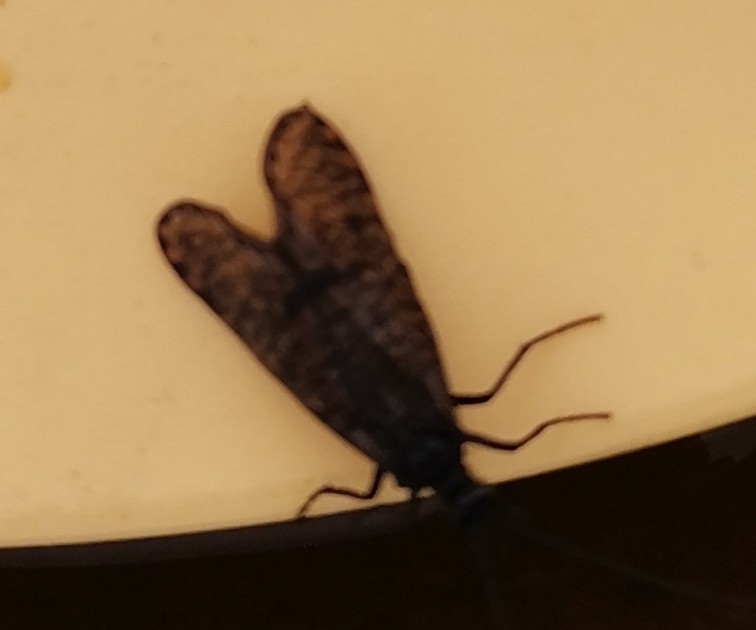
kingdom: Animalia
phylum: Arthropoda
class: Insecta
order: Trichoptera
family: Phryganeidae
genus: Oligostomis
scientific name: Oligostomis reticulata
